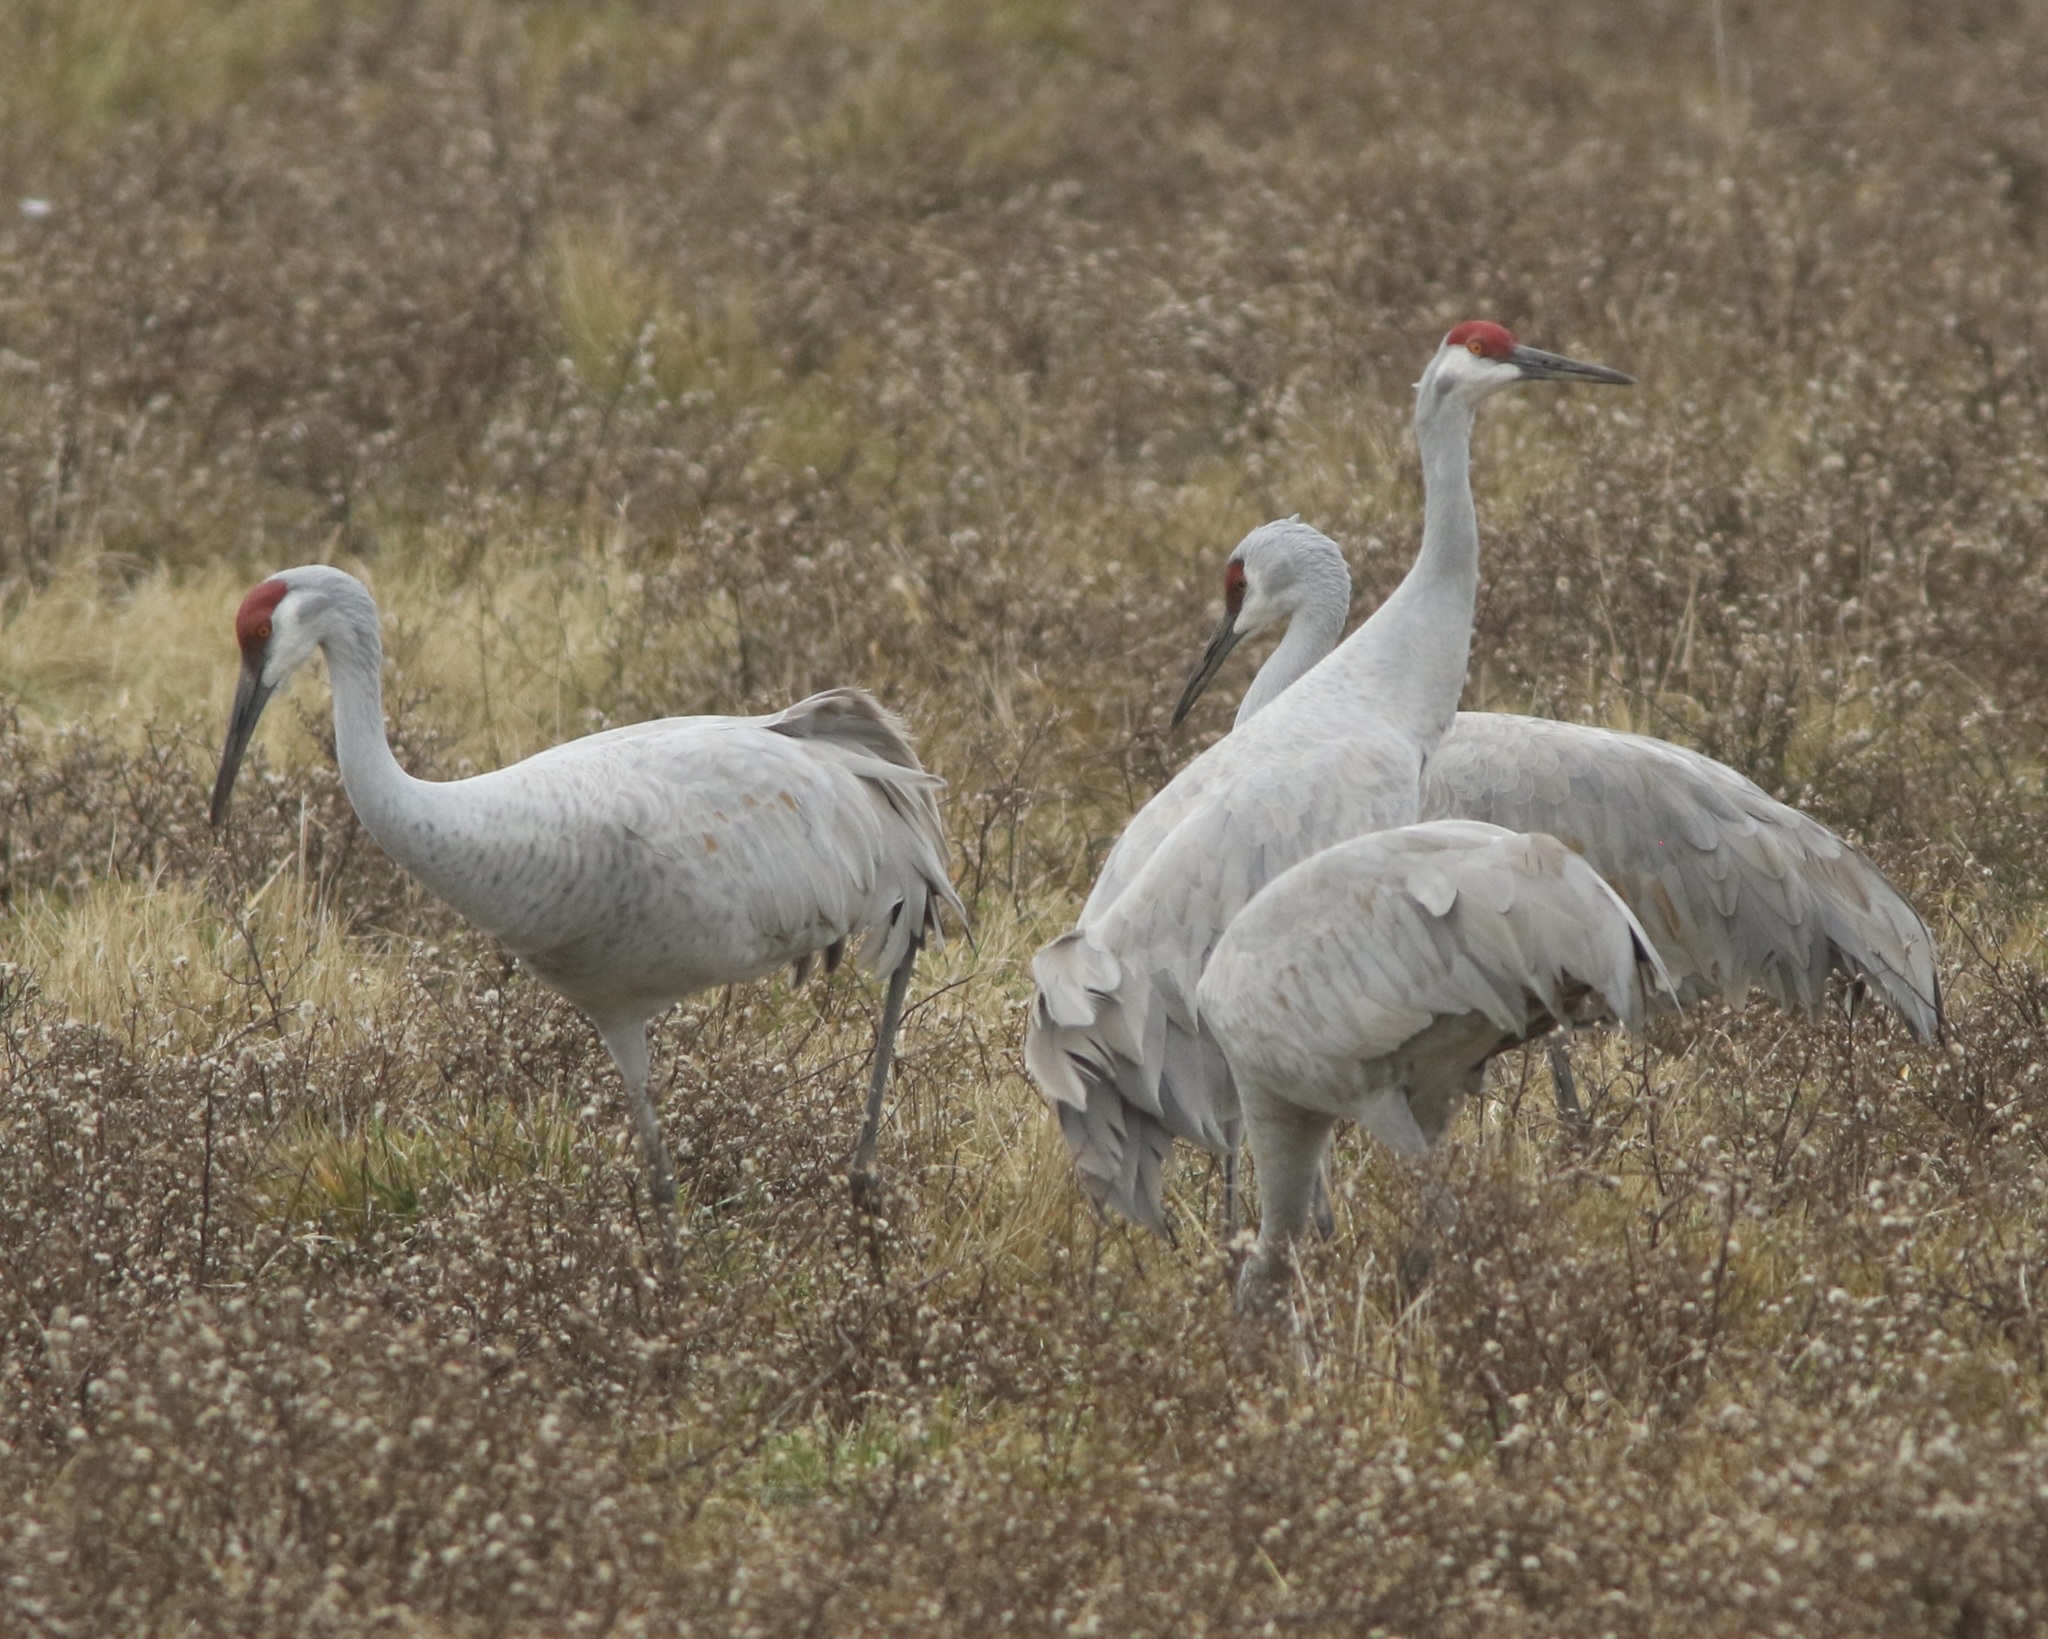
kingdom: Animalia
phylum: Chordata
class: Aves
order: Gruiformes
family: Gruidae
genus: Grus
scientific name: Grus canadensis
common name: Sandhill crane
